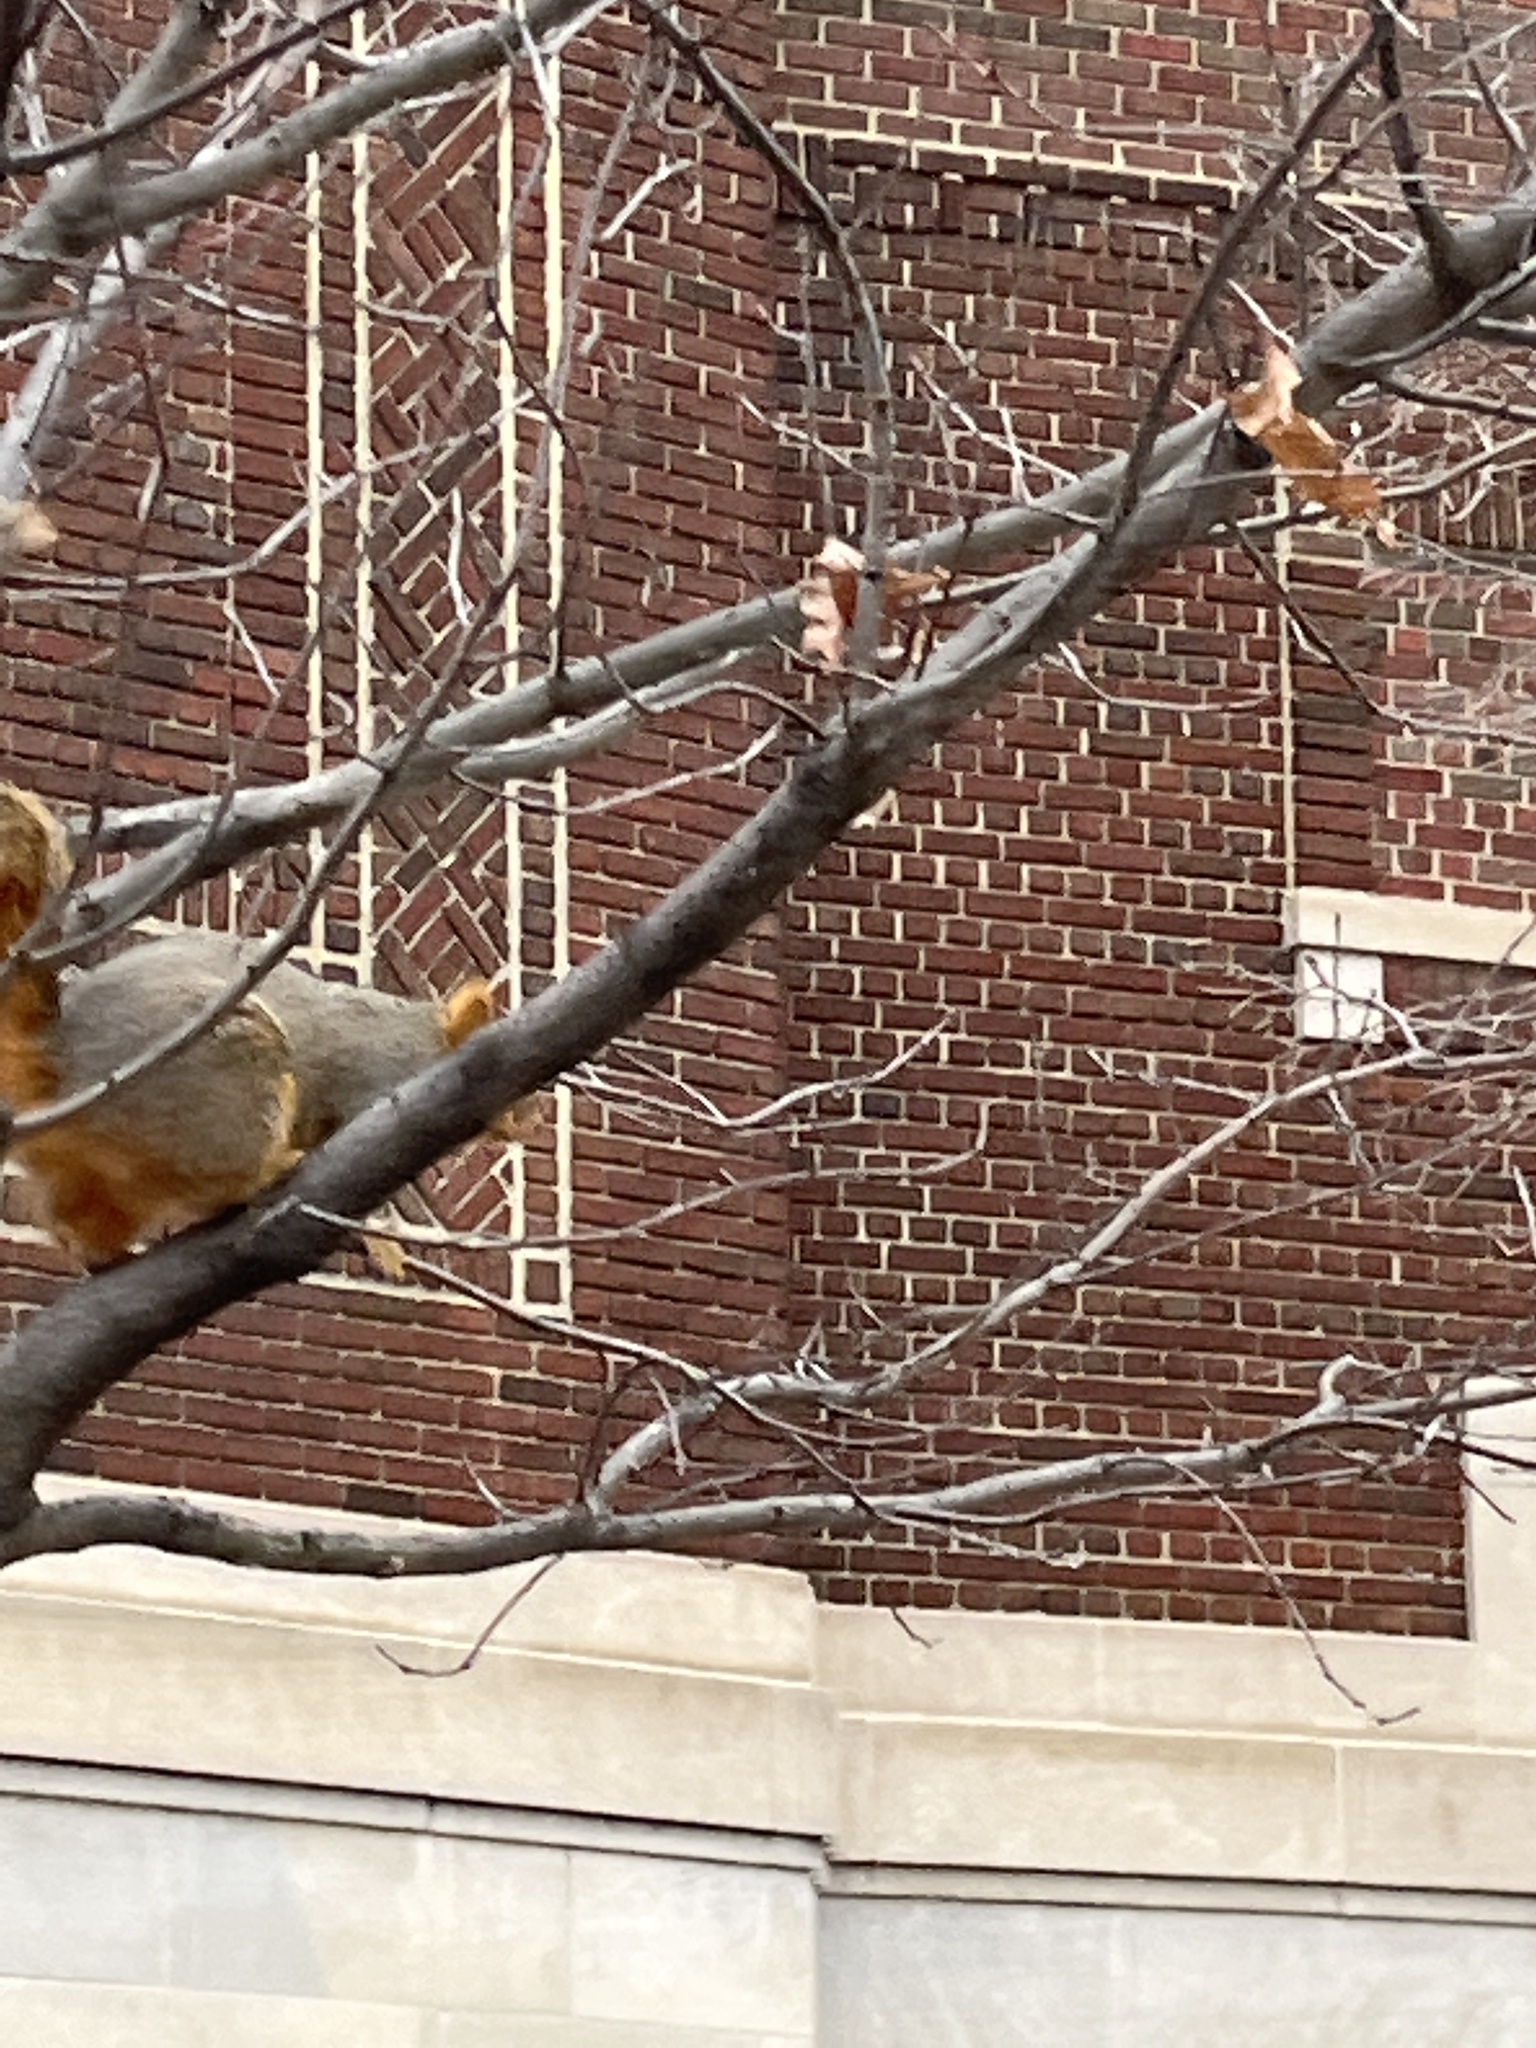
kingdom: Animalia
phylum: Chordata
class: Mammalia
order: Rodentia
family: Sciuridae
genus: Sciurus
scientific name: Sciurus niger
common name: Fox squirrel
